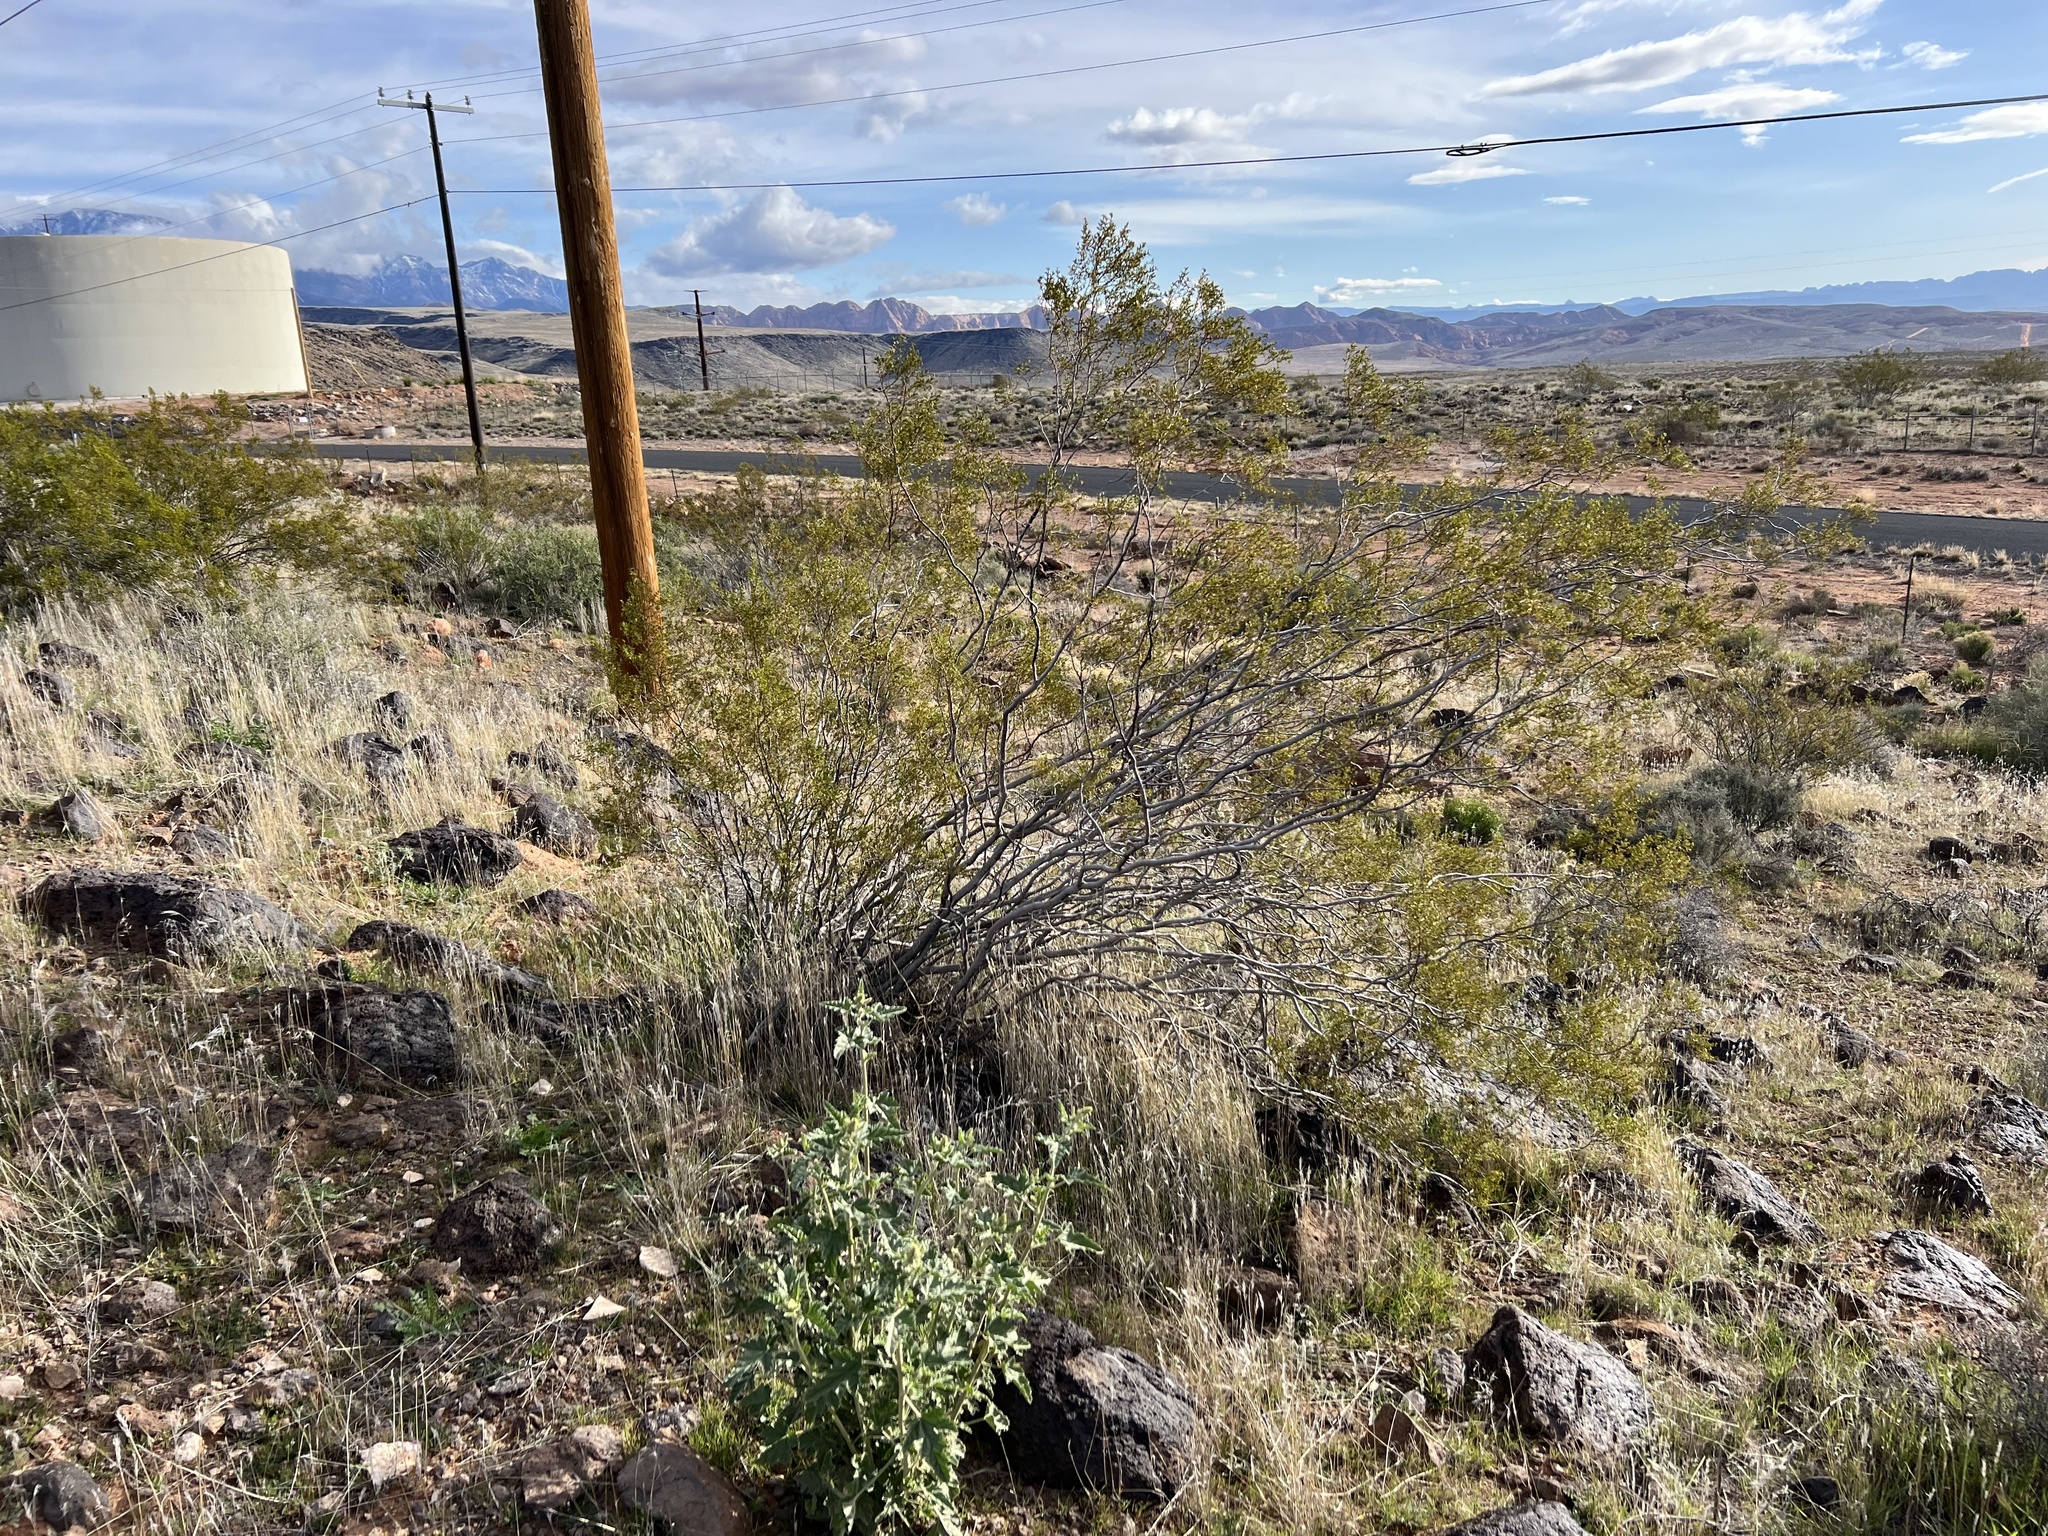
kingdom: Plantae
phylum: Tracheophyta
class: Magnoliopsida
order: Zygophyllales
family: Zygophyllaceae
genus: Larrea
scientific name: Larrea tridentata
